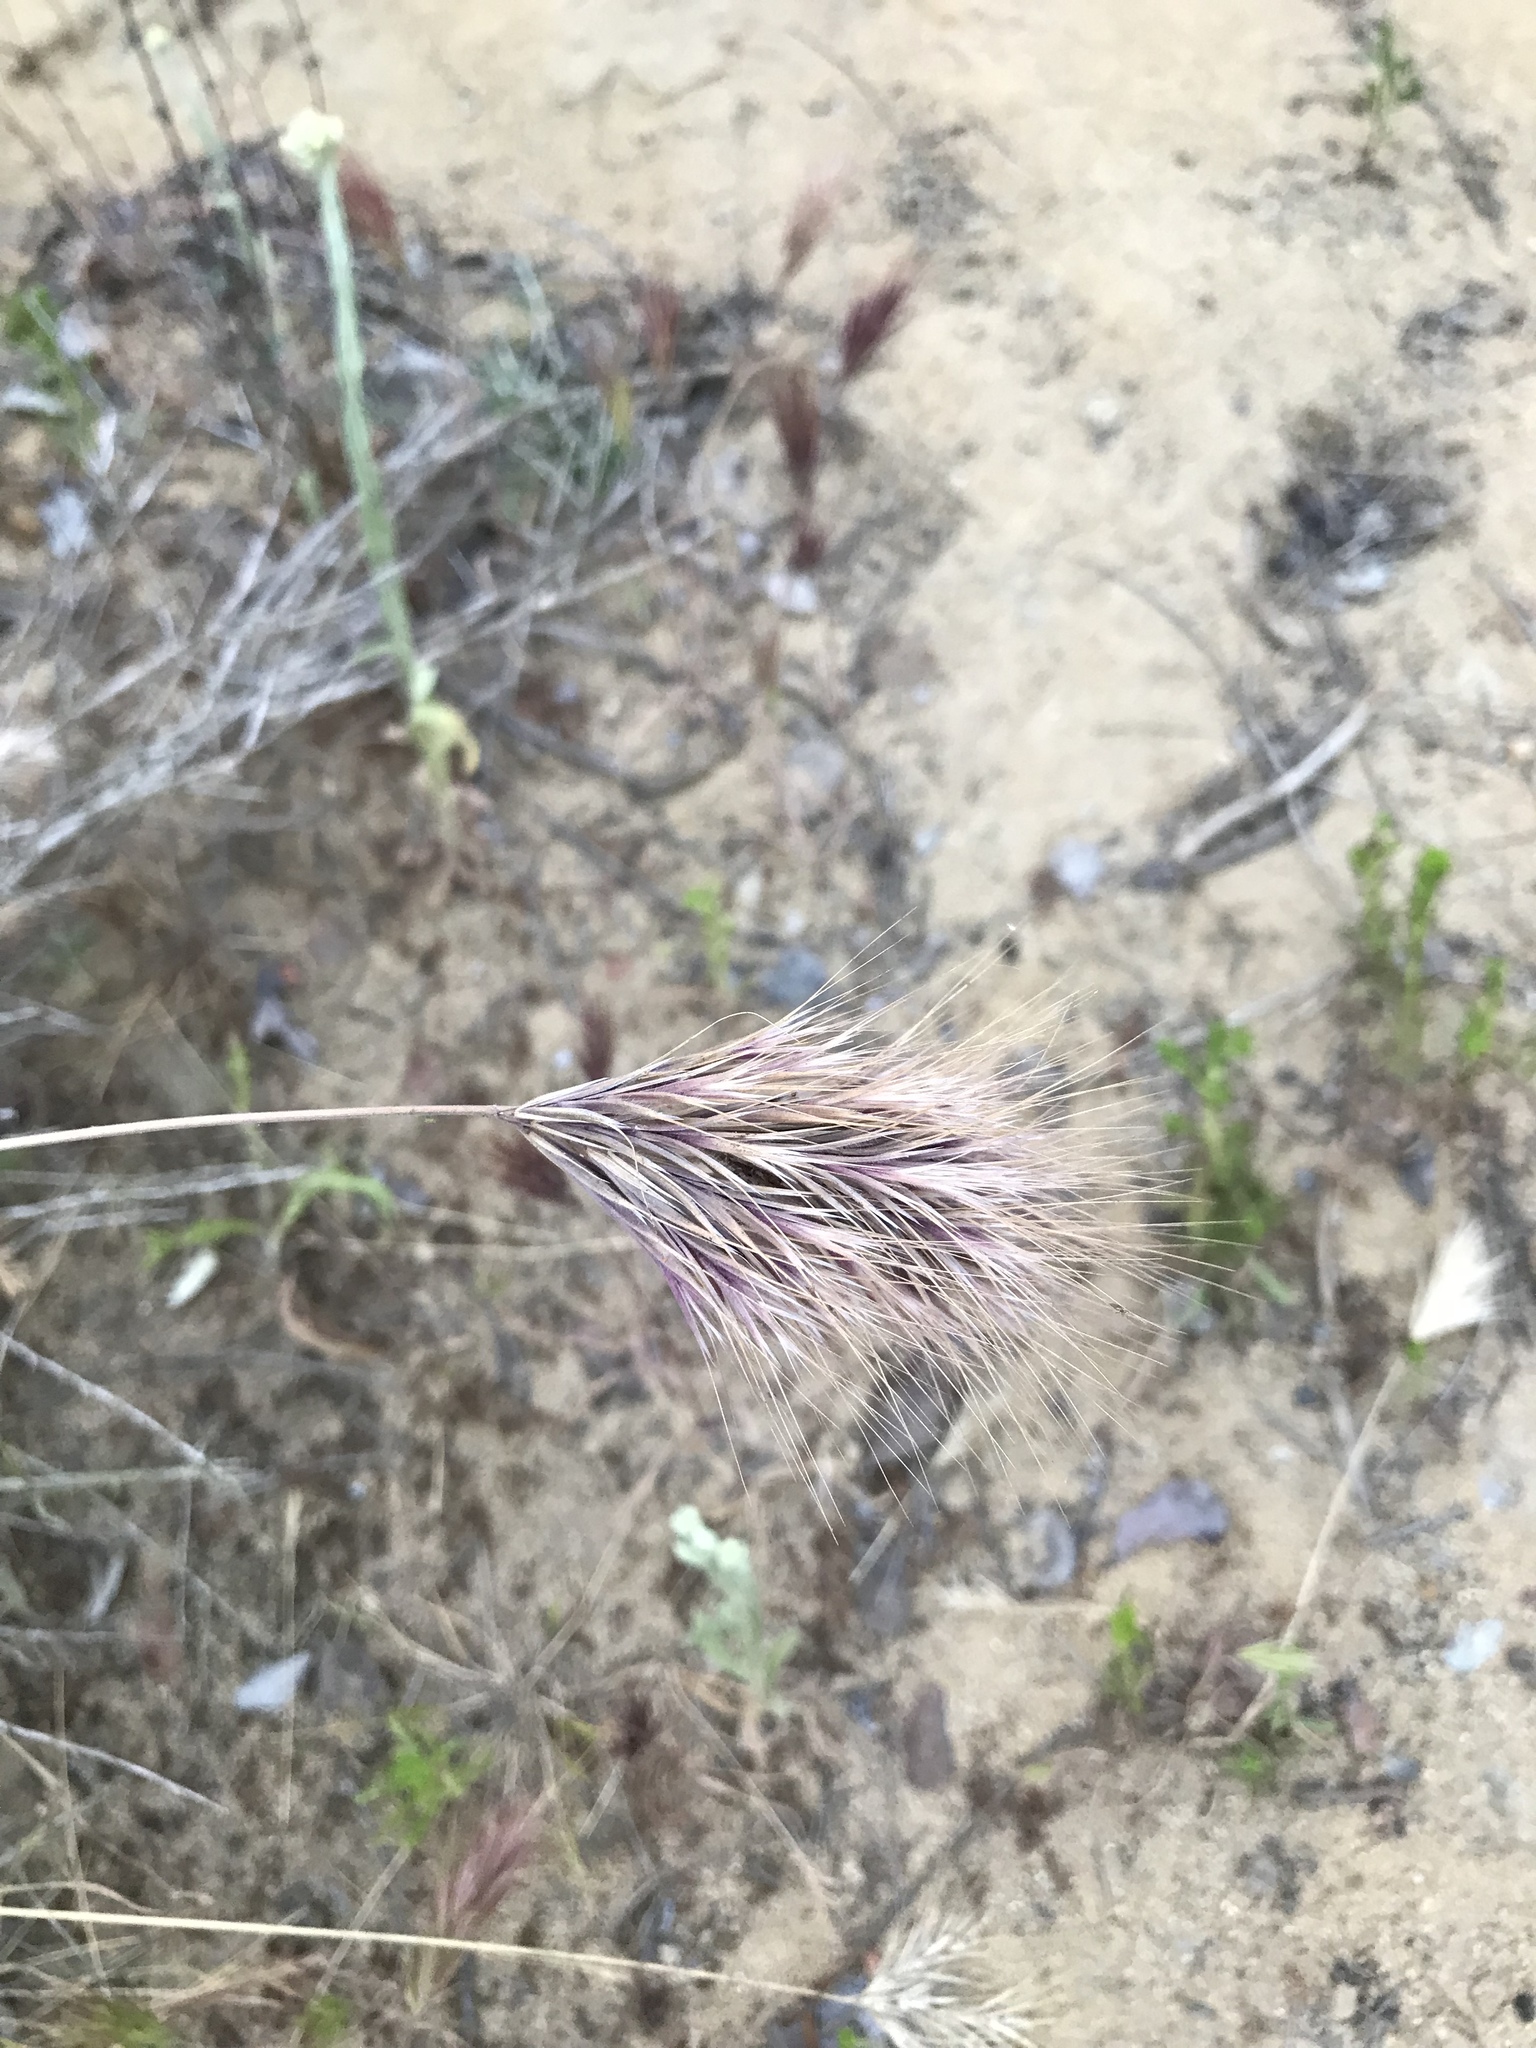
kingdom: Plantae
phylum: Tracheophyta
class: Liliopsida
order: Poales
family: Poaceae
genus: Bromus
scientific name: Bromus rubens
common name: Red brome
